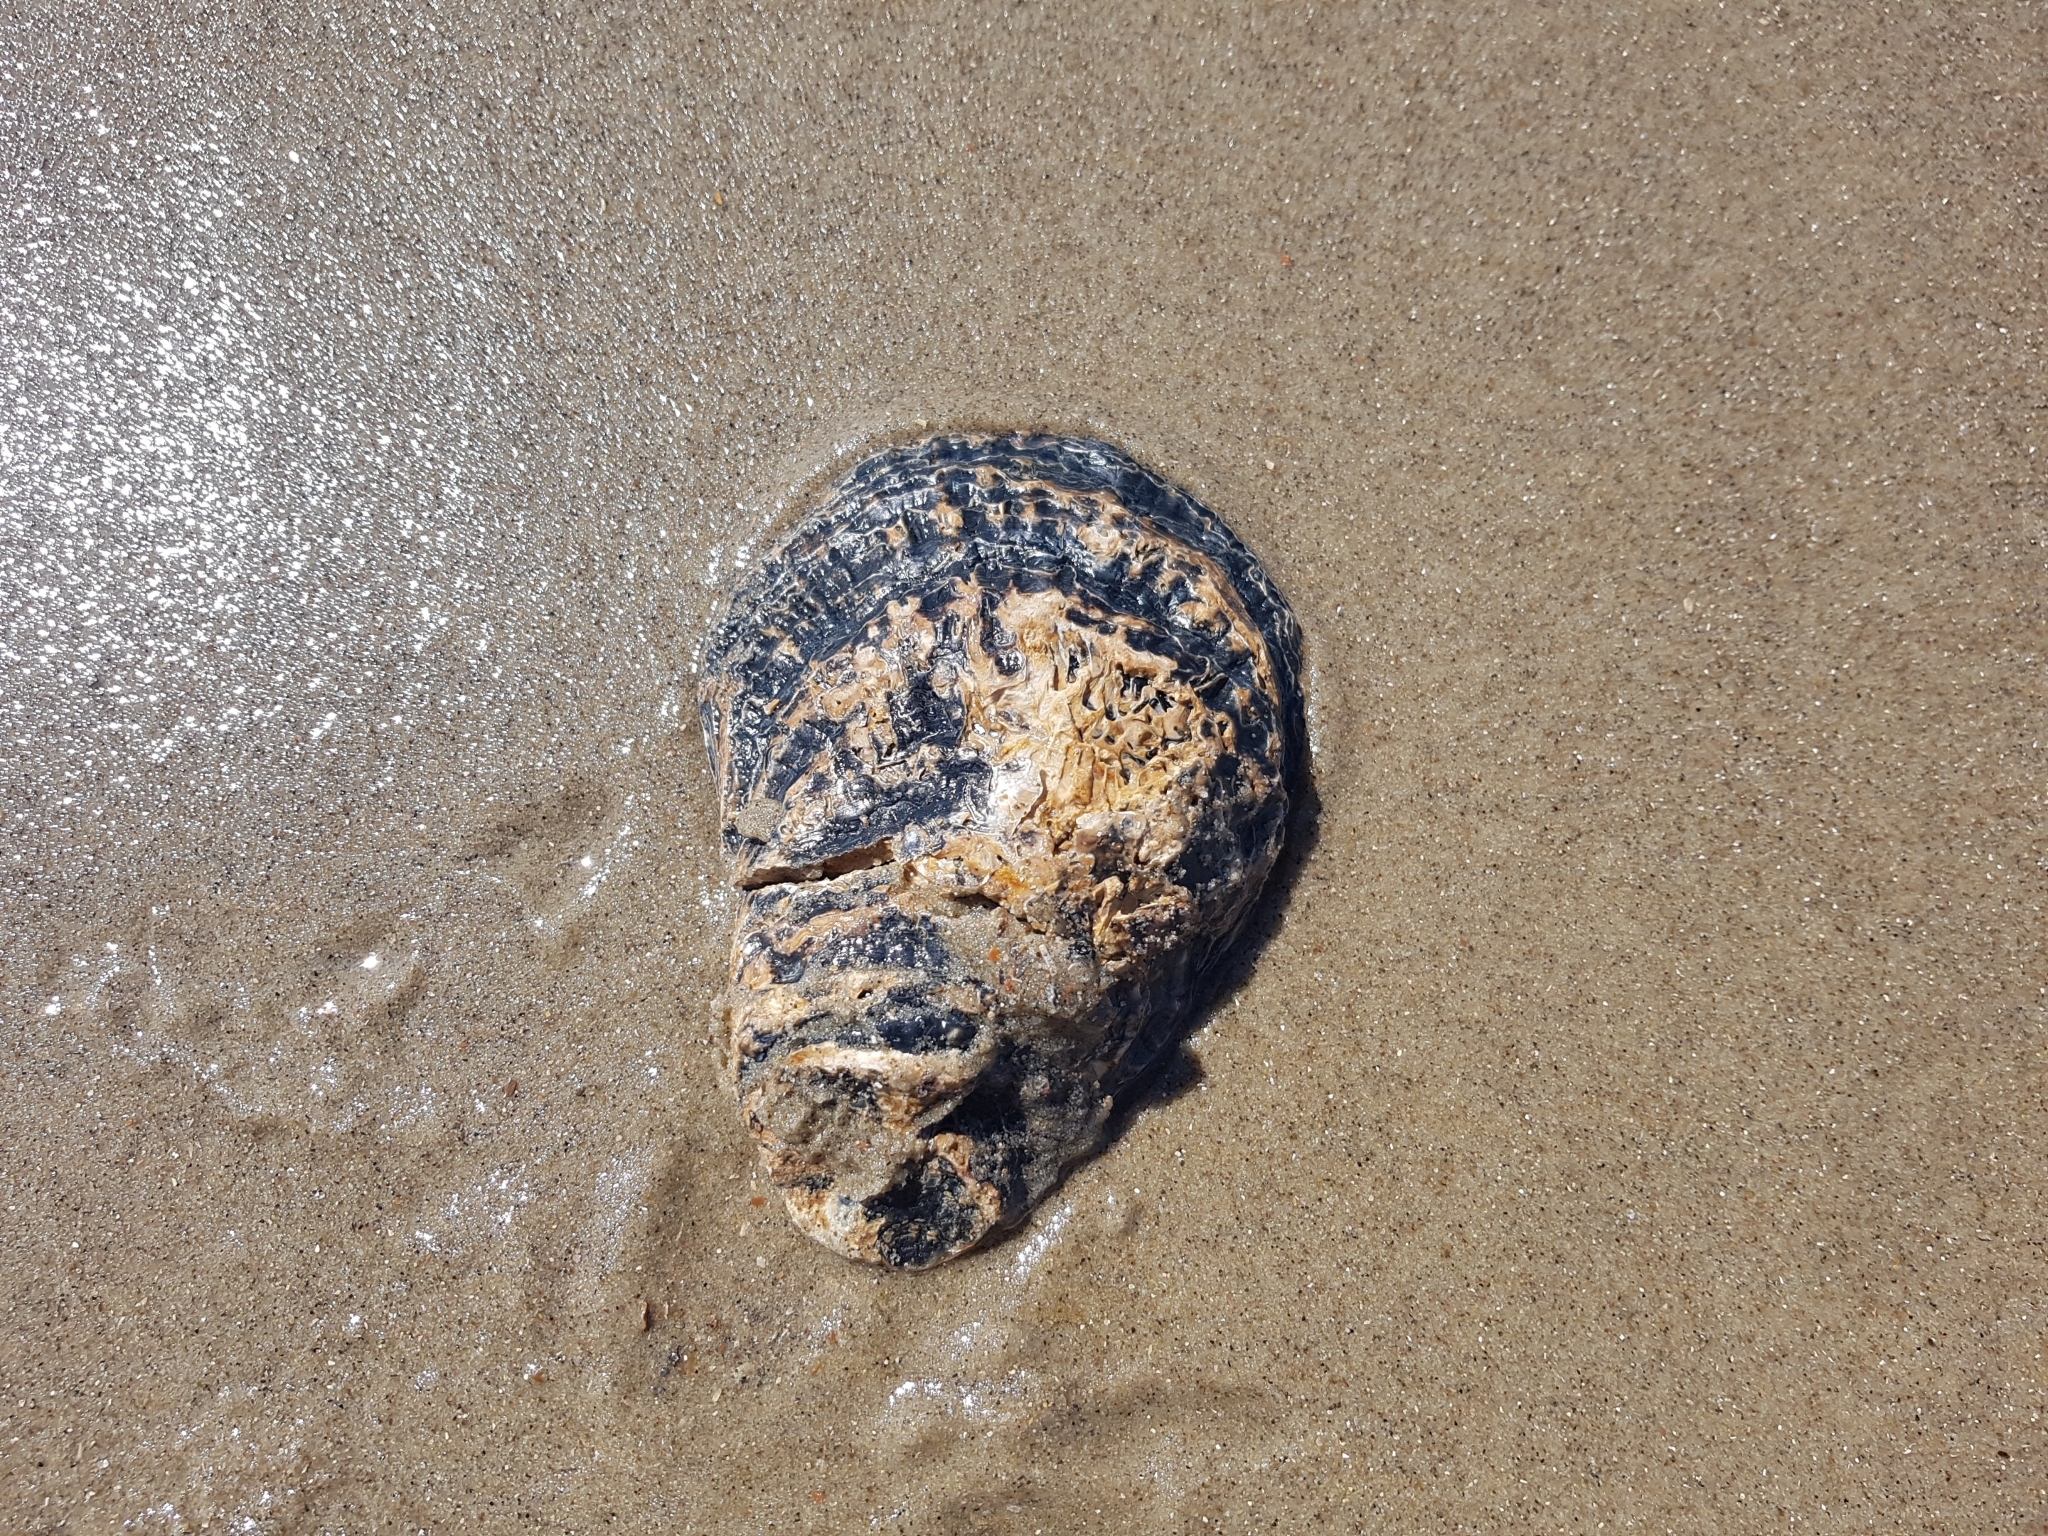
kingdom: Animalia
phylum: Mollusca
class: Bivalvia
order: Ostreida
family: Ostreidae
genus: Ostrea
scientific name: Ostrea edulis
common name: Flat oyster
